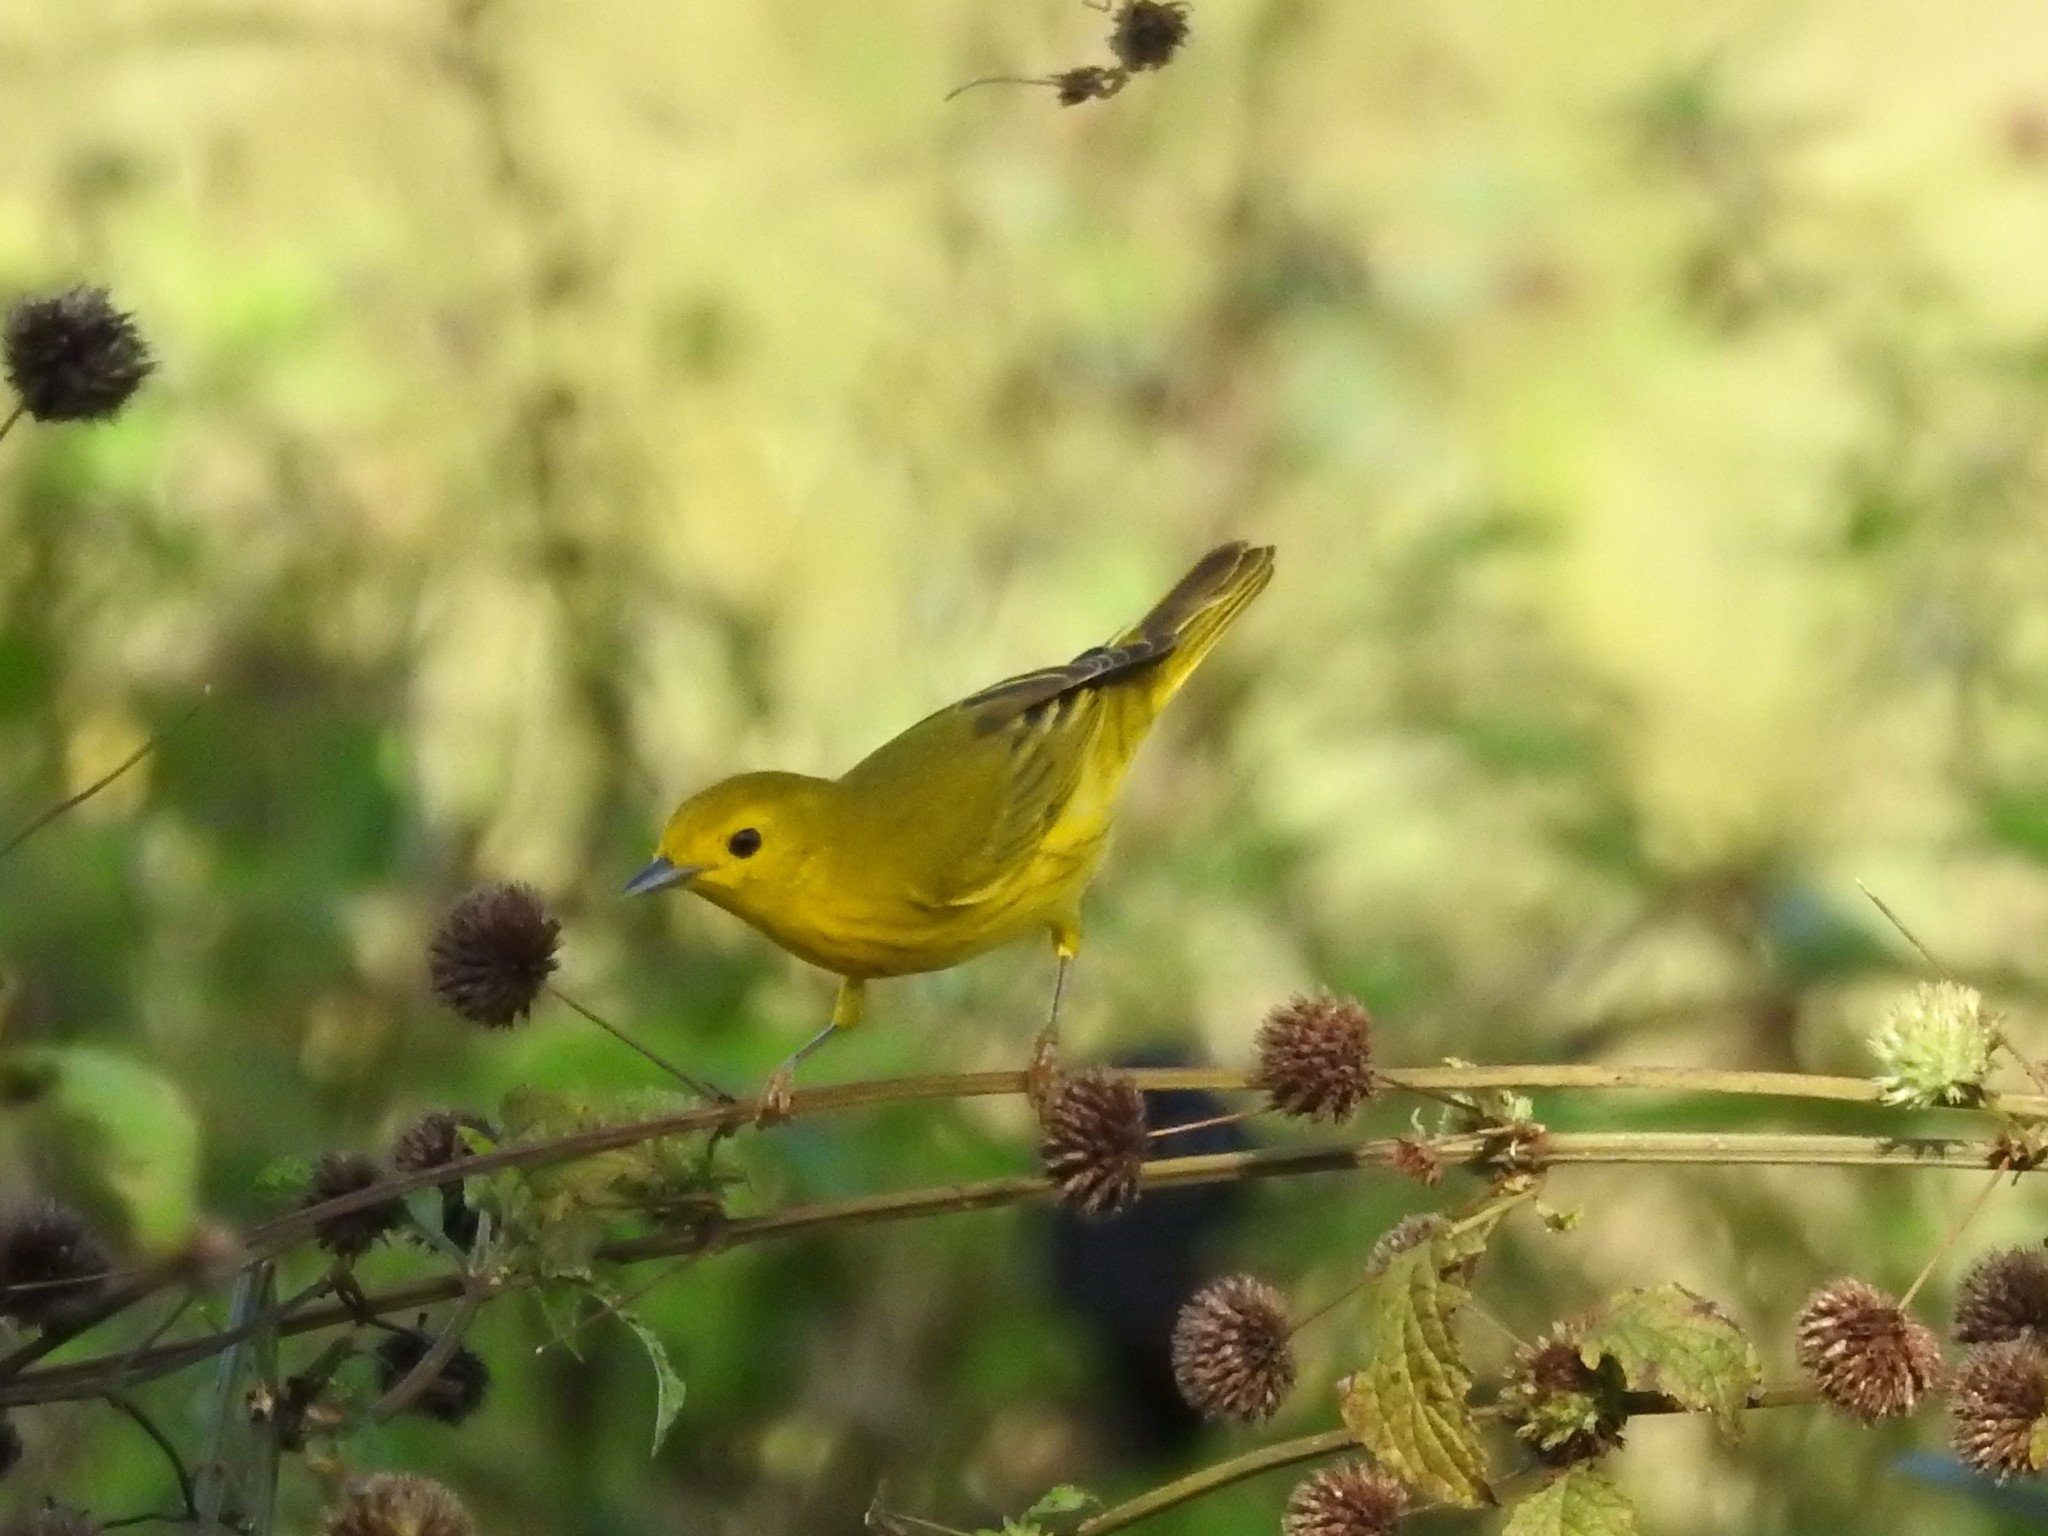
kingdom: Animalia
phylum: Chordata
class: Aves
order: Passeriformes
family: Parulidae
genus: Setophaga
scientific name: Setophaga petechia
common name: Yellow warbler
